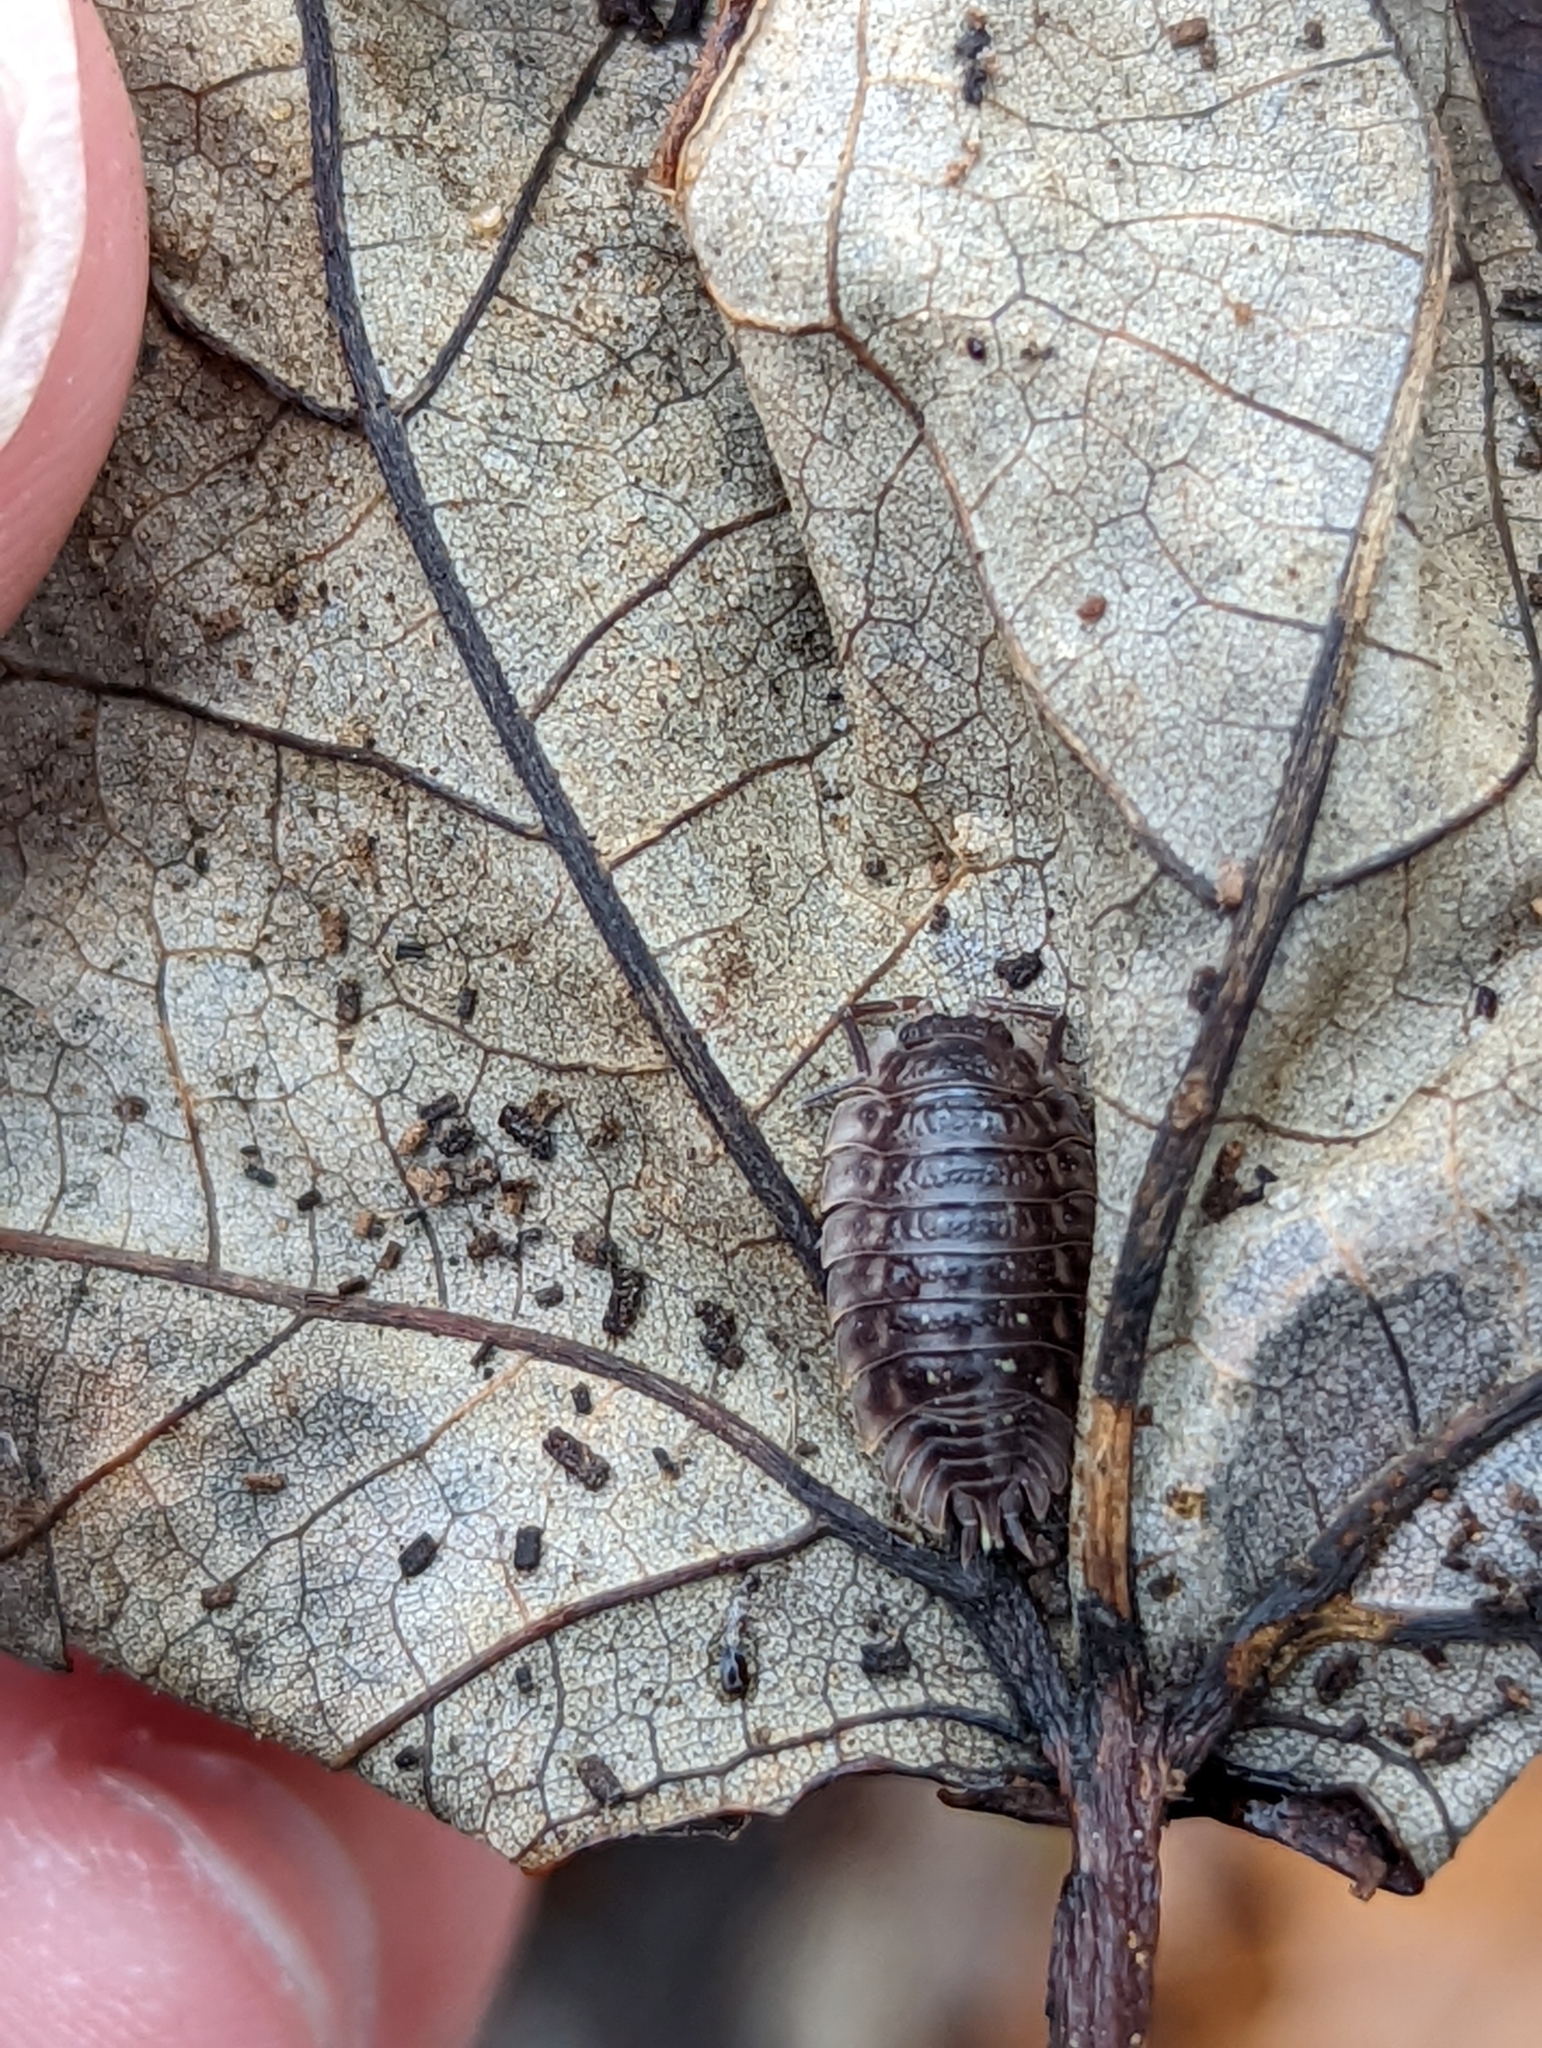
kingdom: Animalia
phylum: Arthropoda
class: Malacostraca
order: Isopoda
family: Oniscidae
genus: Oniscus
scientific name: Oniscus asellus
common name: Common shiny woodlouse
